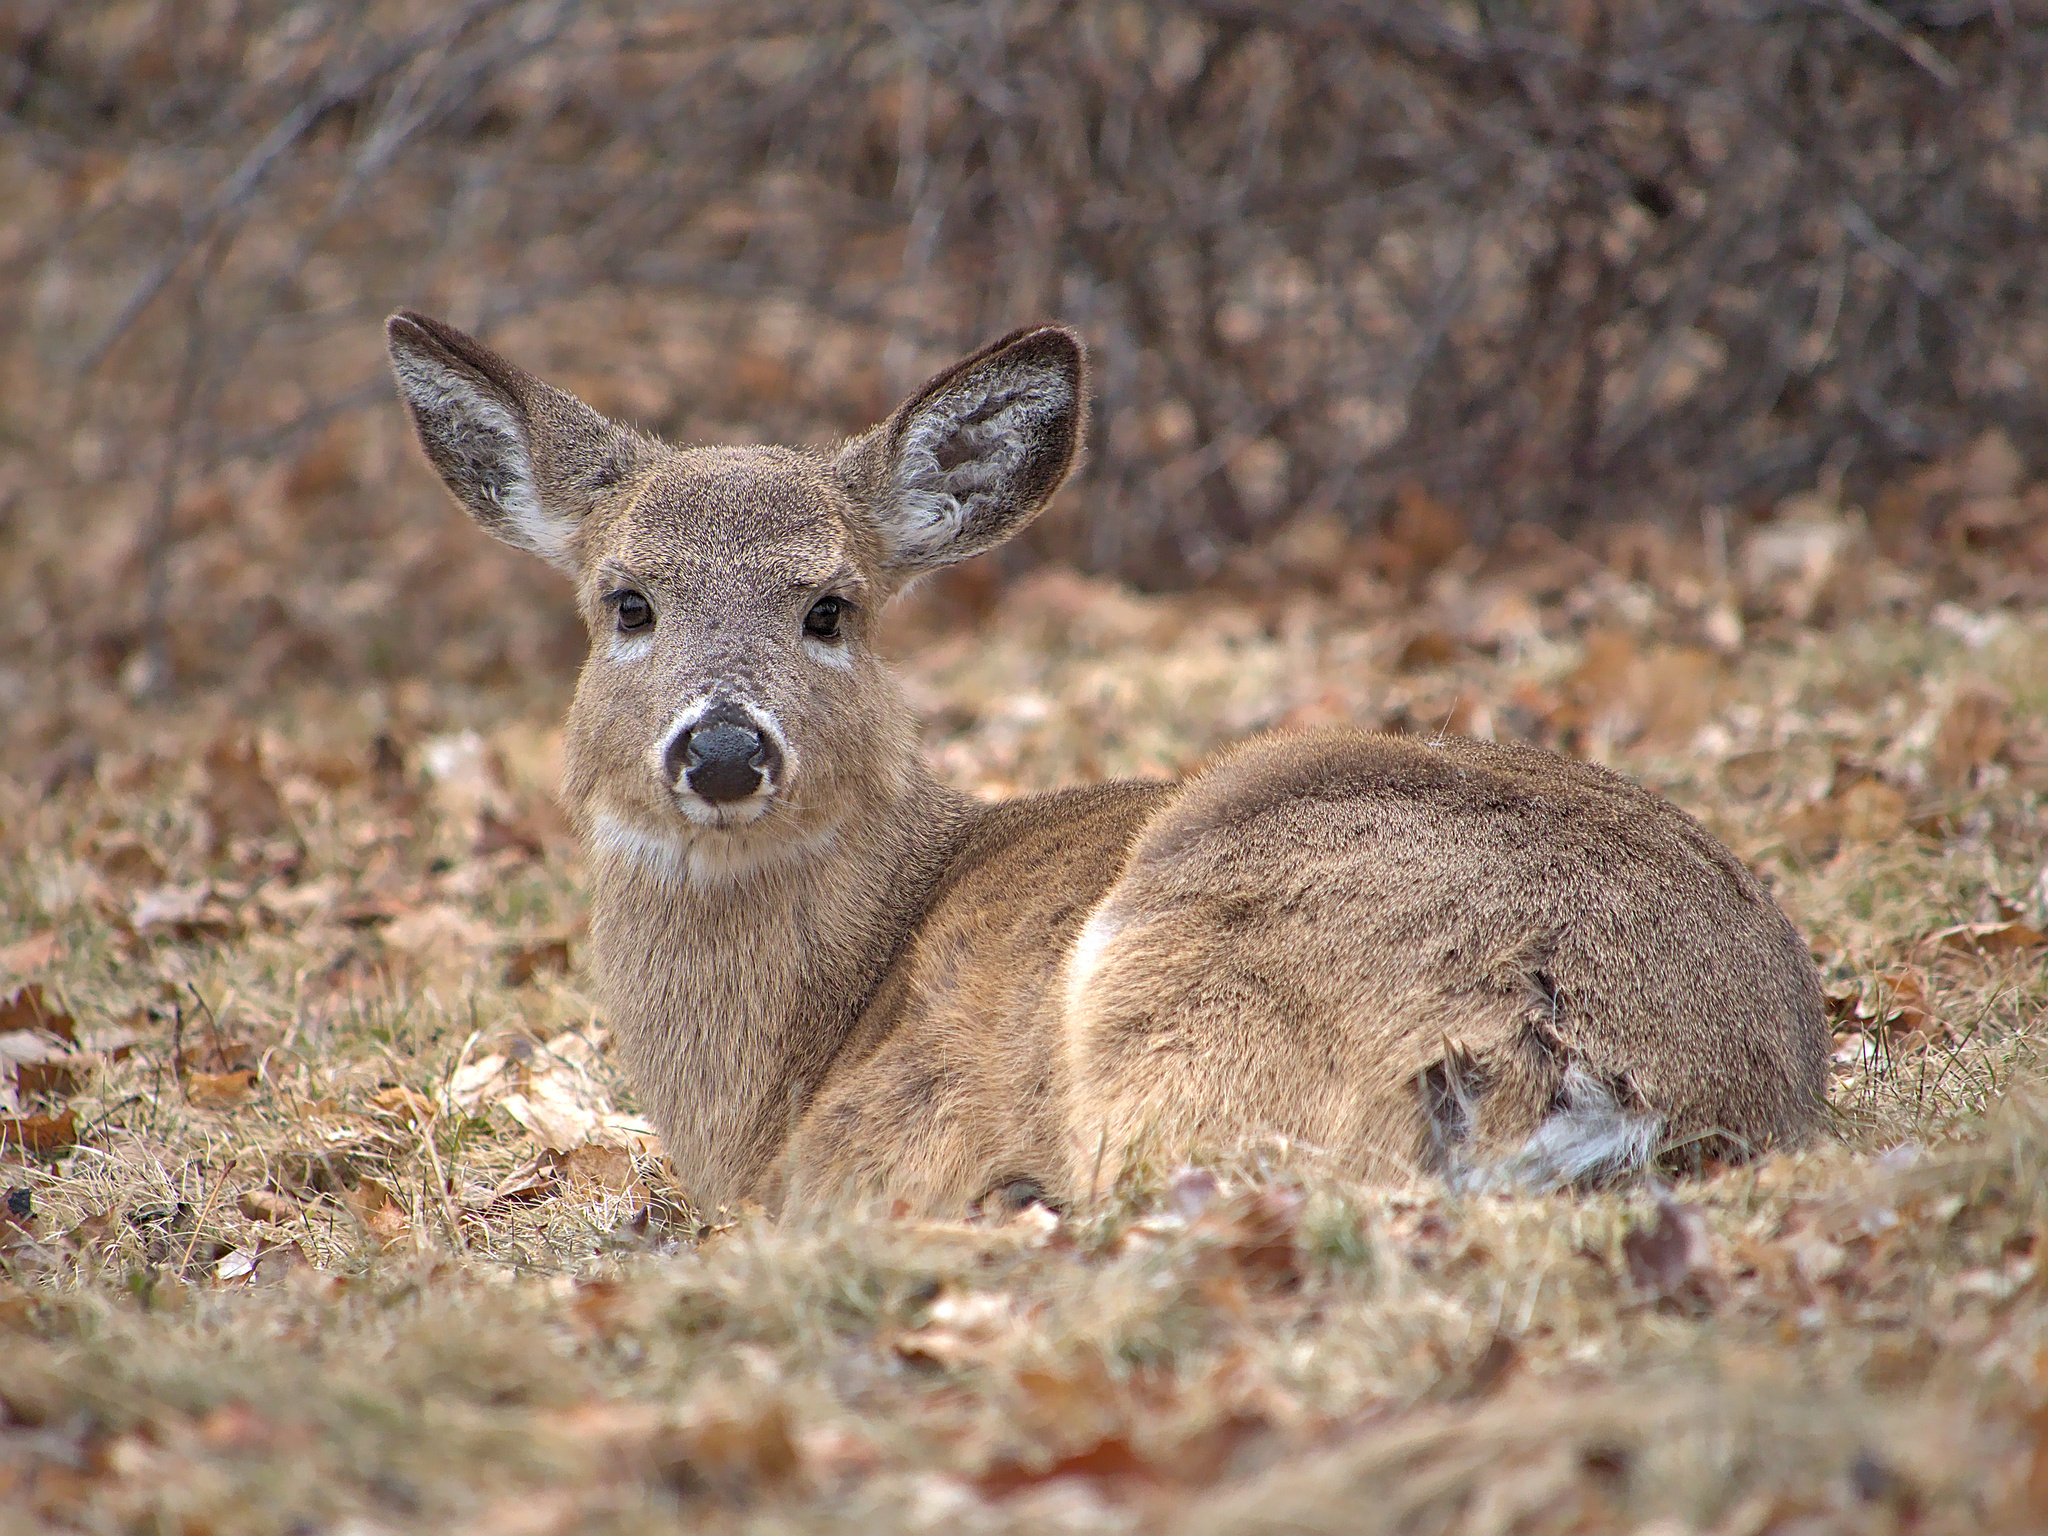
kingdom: Animalia
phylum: Chordata
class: Mammalia
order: Artiodactyla
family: Cervidae
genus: Odocoileus
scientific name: Odocoileus virginianus
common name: White-tailed deer
